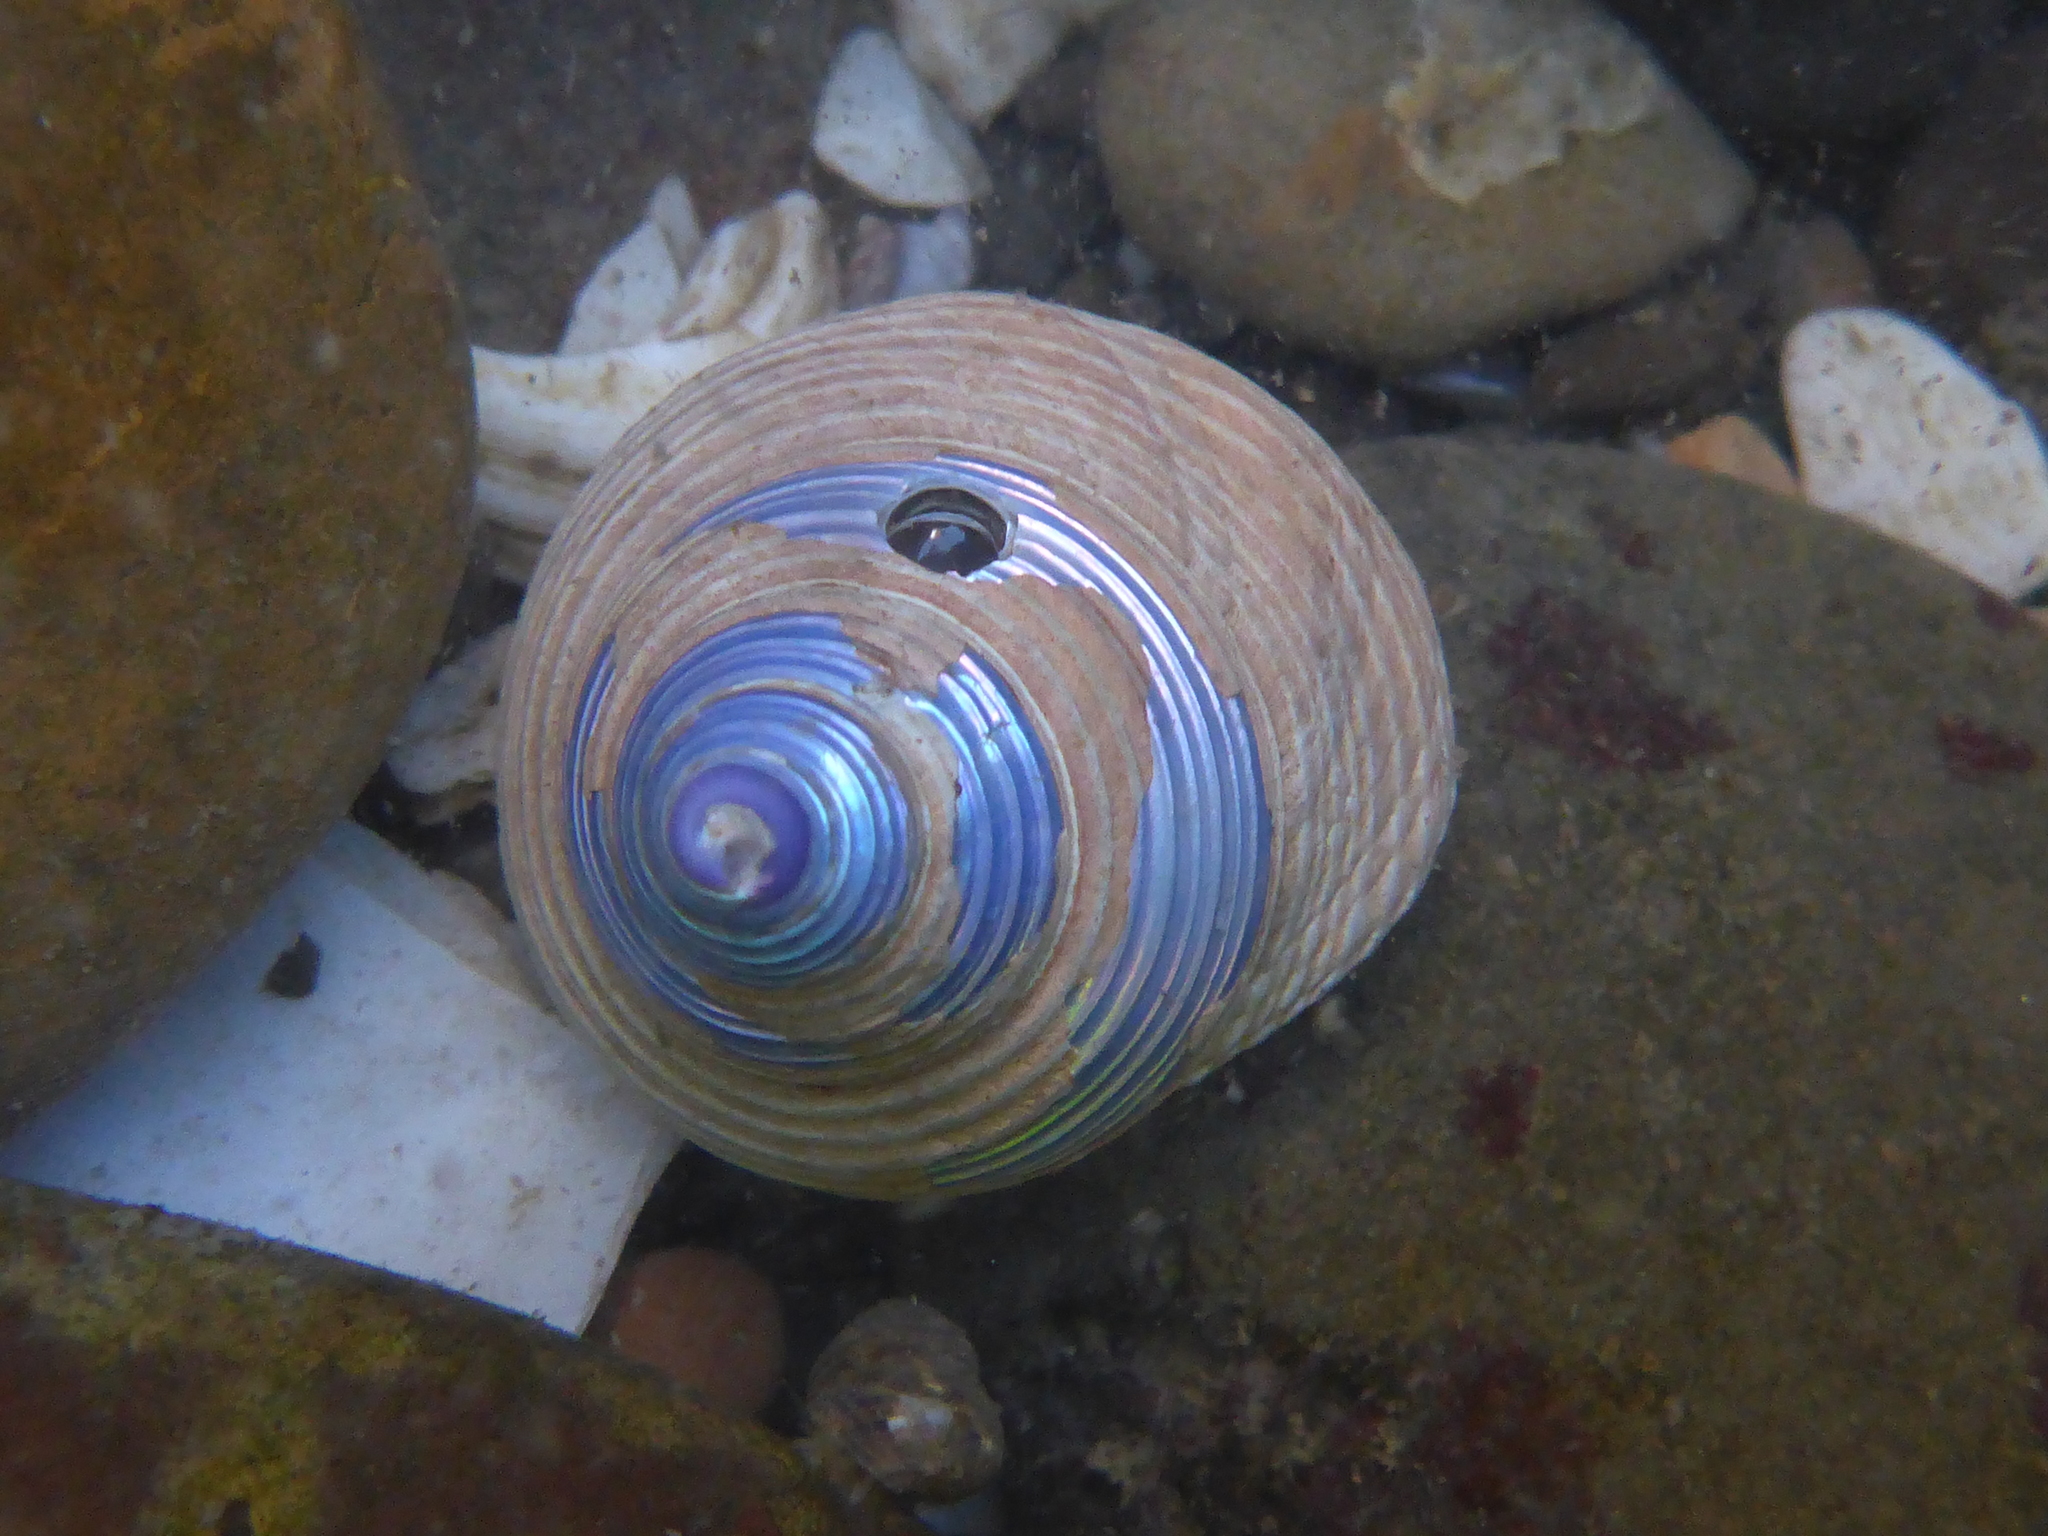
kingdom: Animalia
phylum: Mollusca
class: Gastropoda
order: Trochida
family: Calliostomatidae
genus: Calliostoma
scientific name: Calliostoma ligatum
